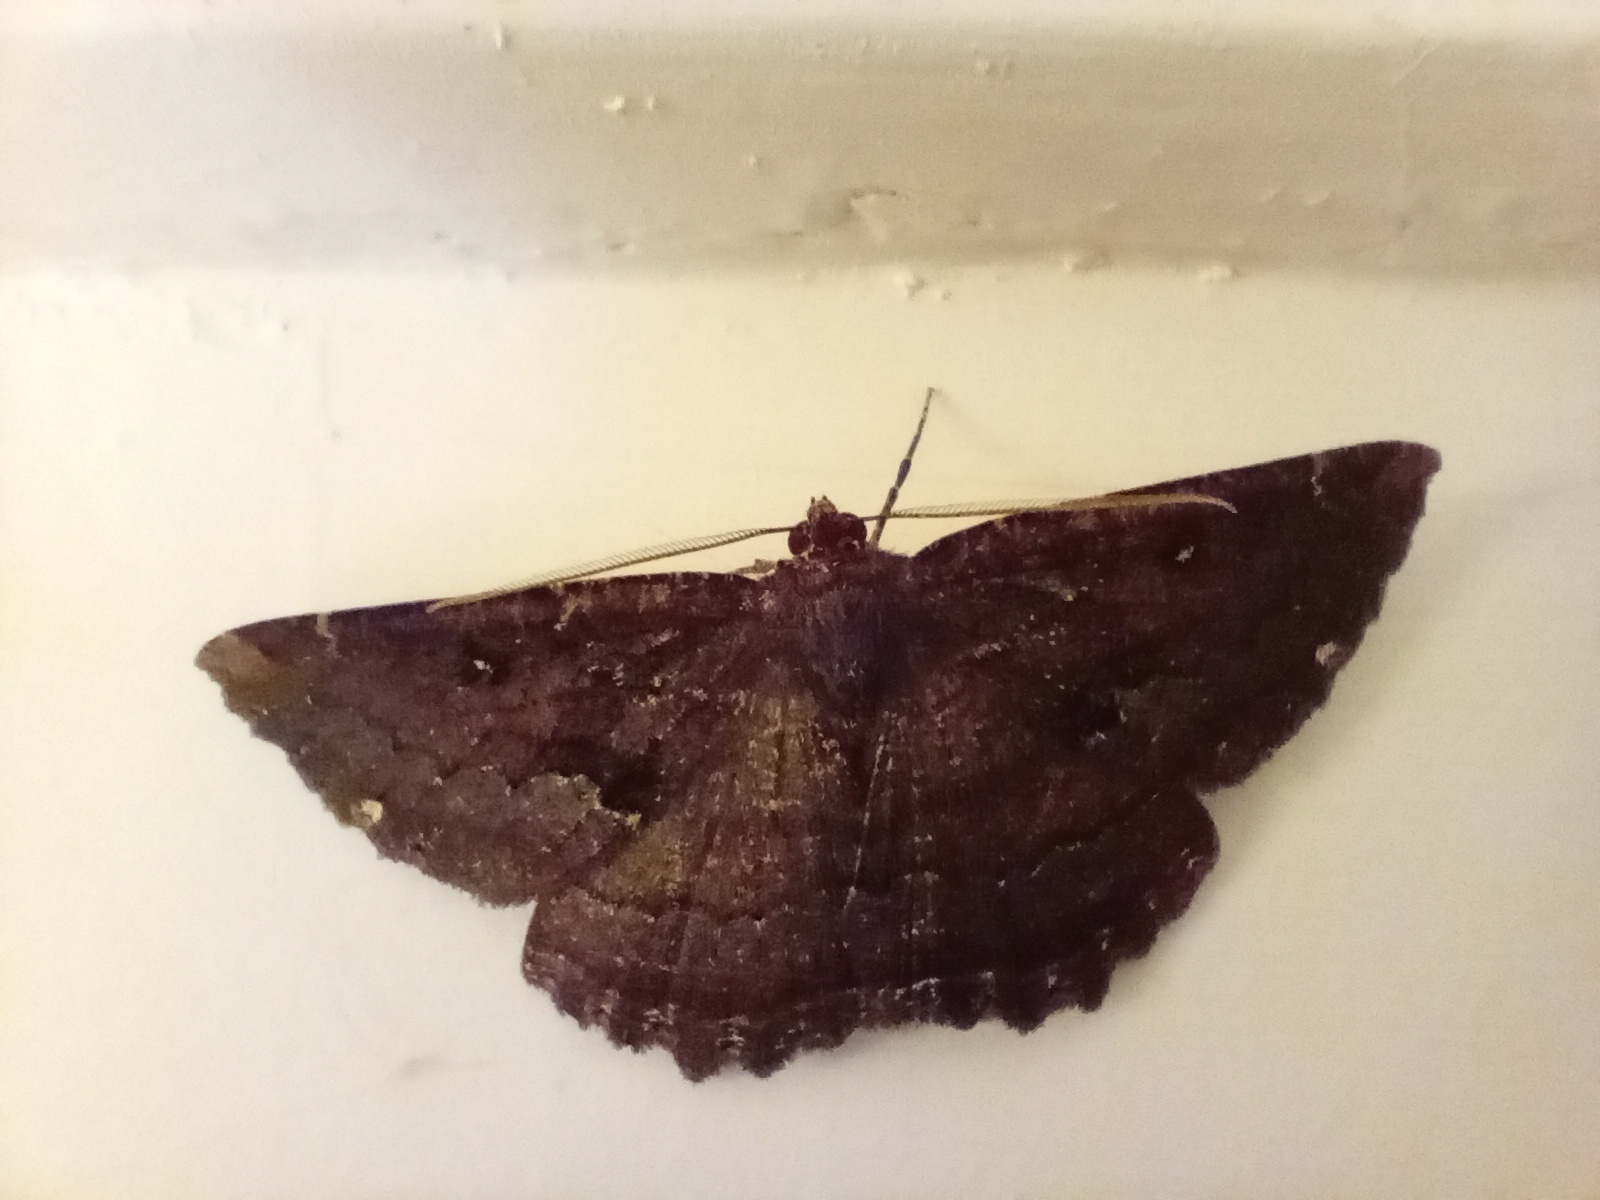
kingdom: Animalia
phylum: Arthropoda
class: Insecta
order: Lepidoptera
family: Geometridae
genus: Gellonia
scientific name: Gellonia dejectaria
